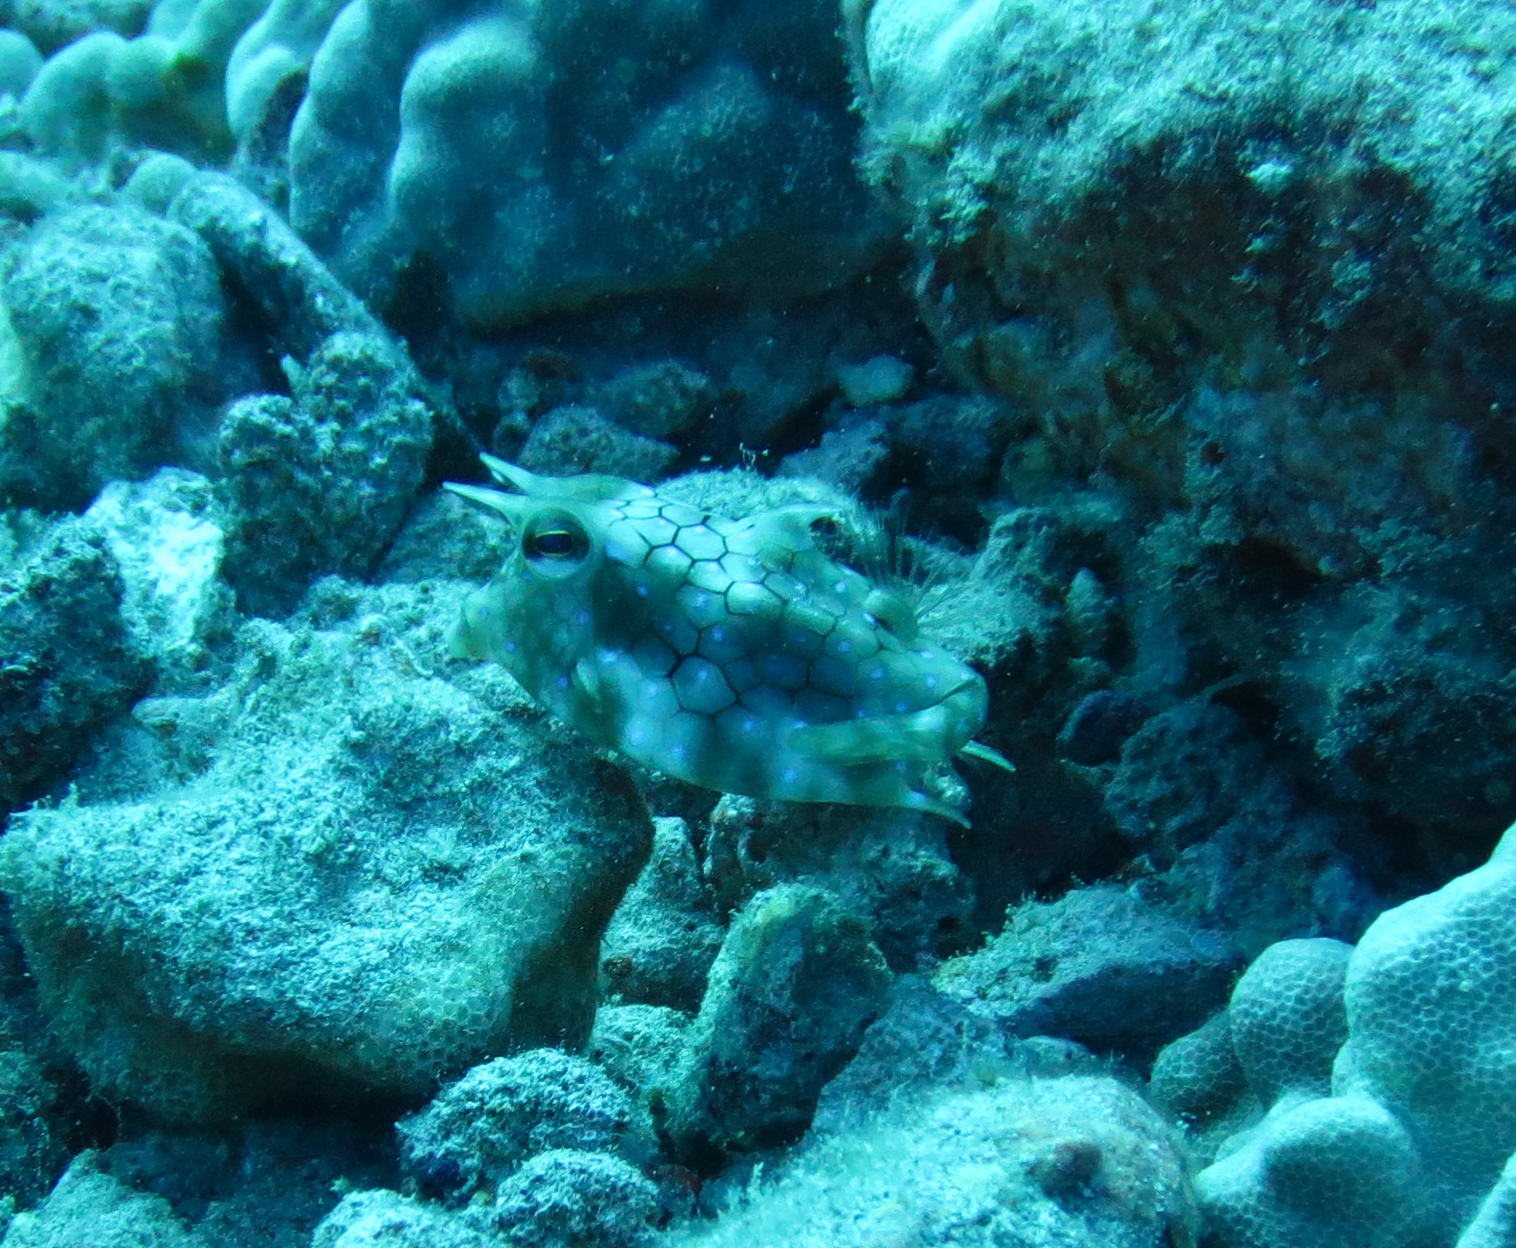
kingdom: Animalia
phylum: Chordata
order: Tetraodontiformes
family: Ostraciidae
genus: Lactoria
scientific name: Lactoria fornasini
